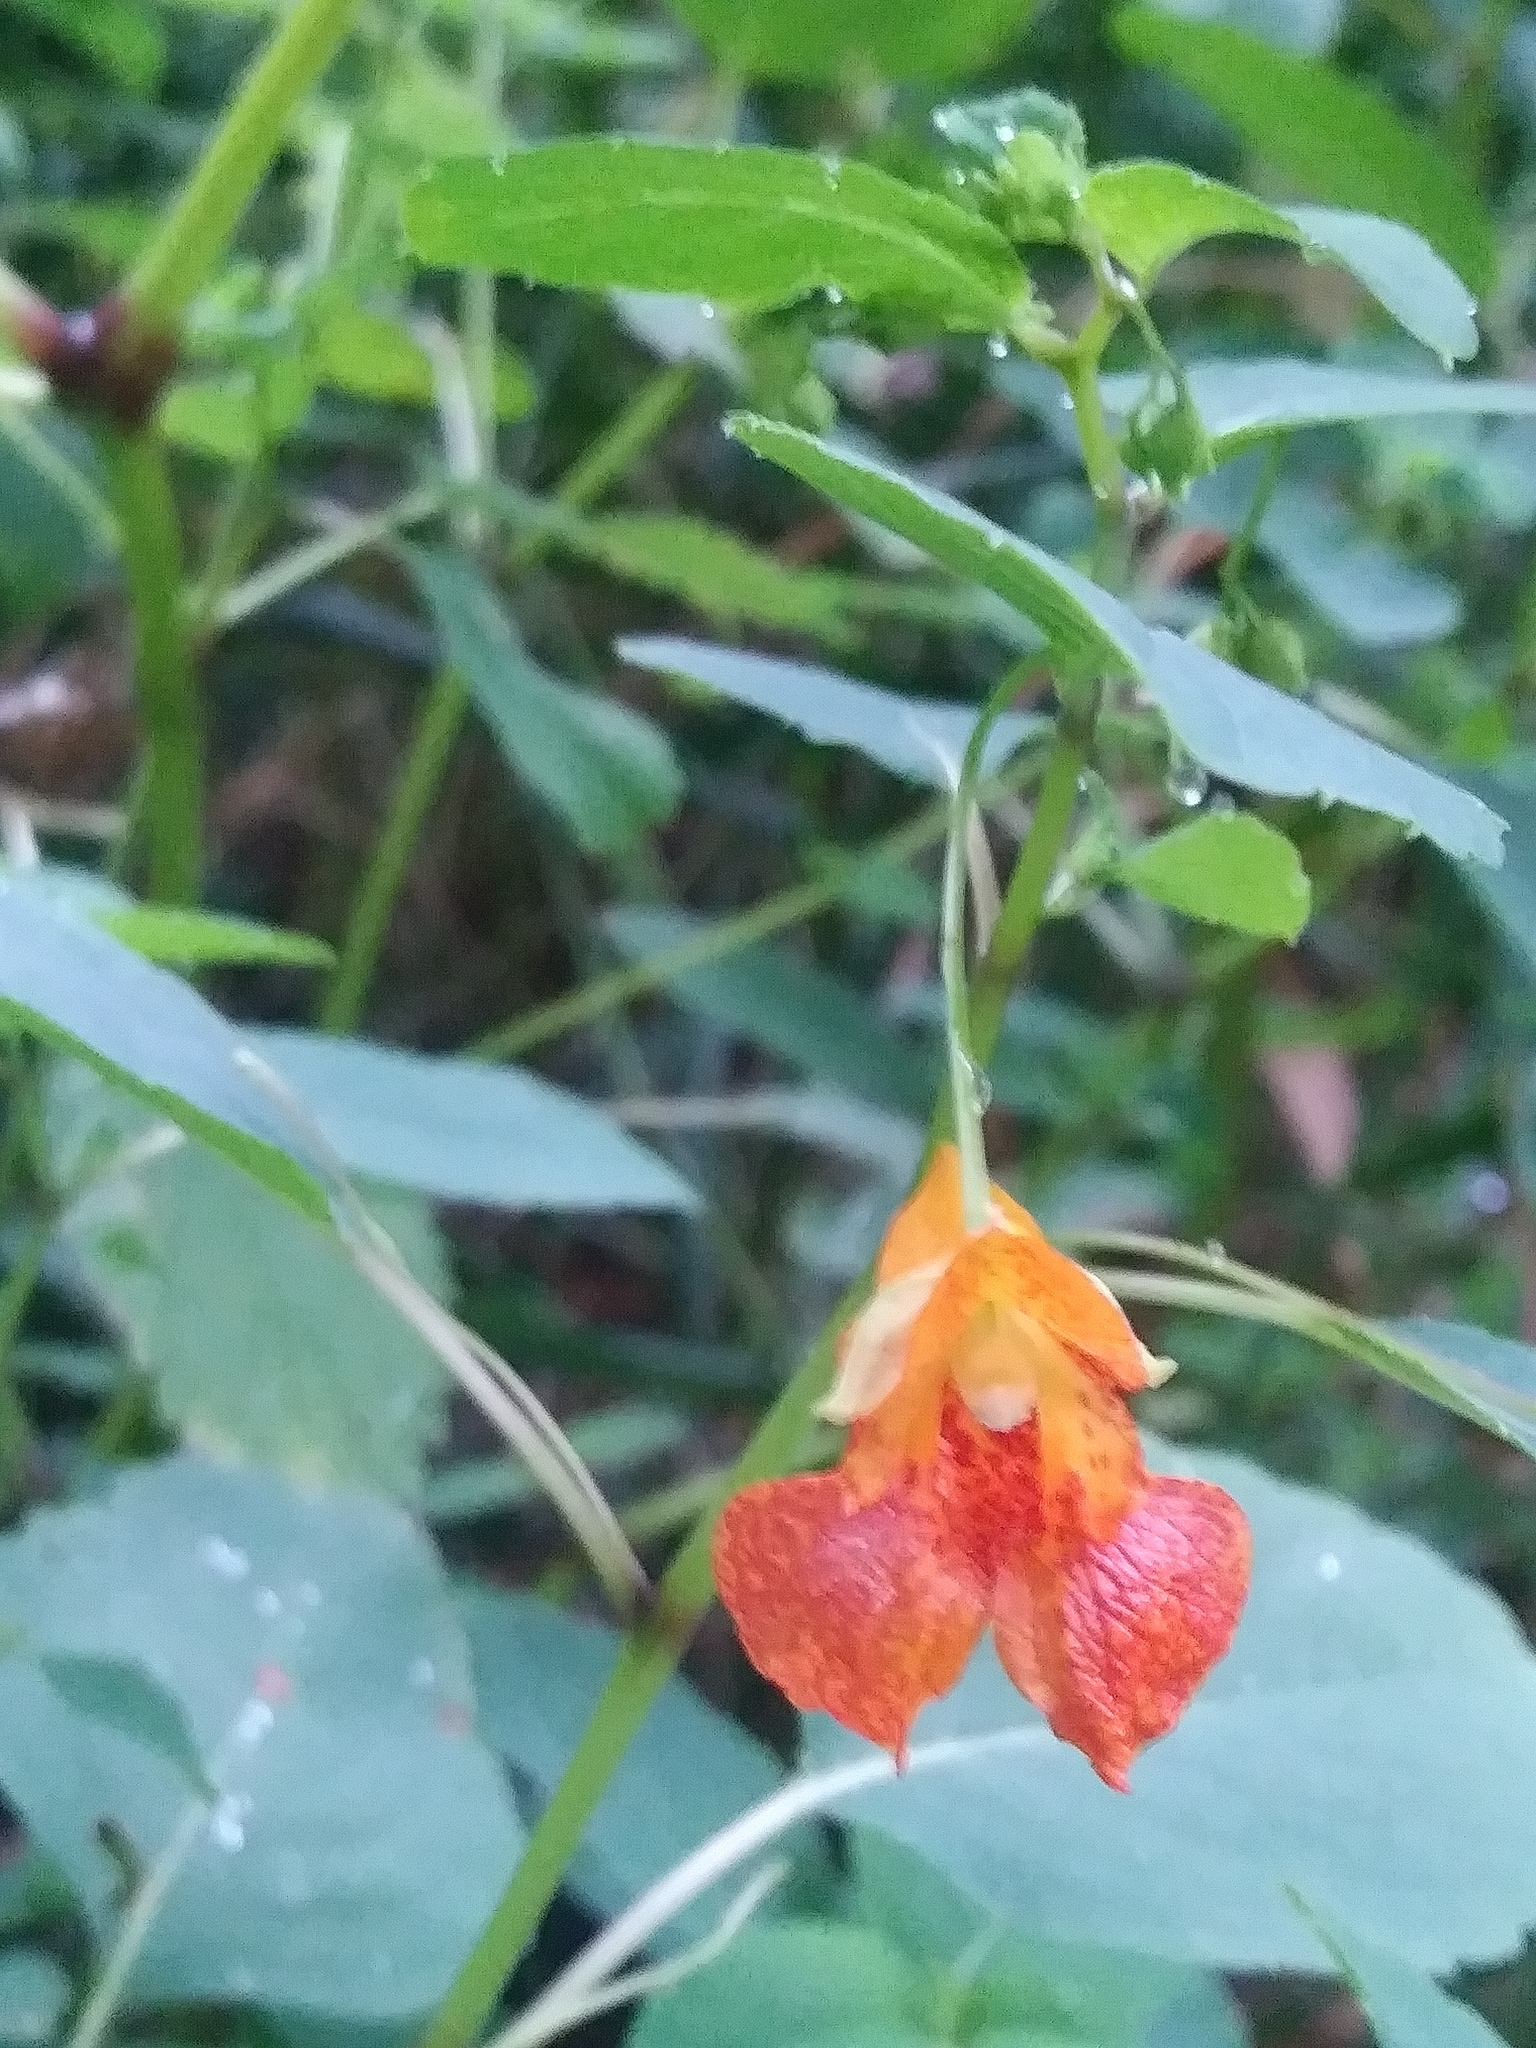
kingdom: Plantae
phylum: Tracheophyta
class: Magnoliopsida
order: Ericales
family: Balsaminaceae
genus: Impatiens
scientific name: Impatiens capensis
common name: Orange balsam
